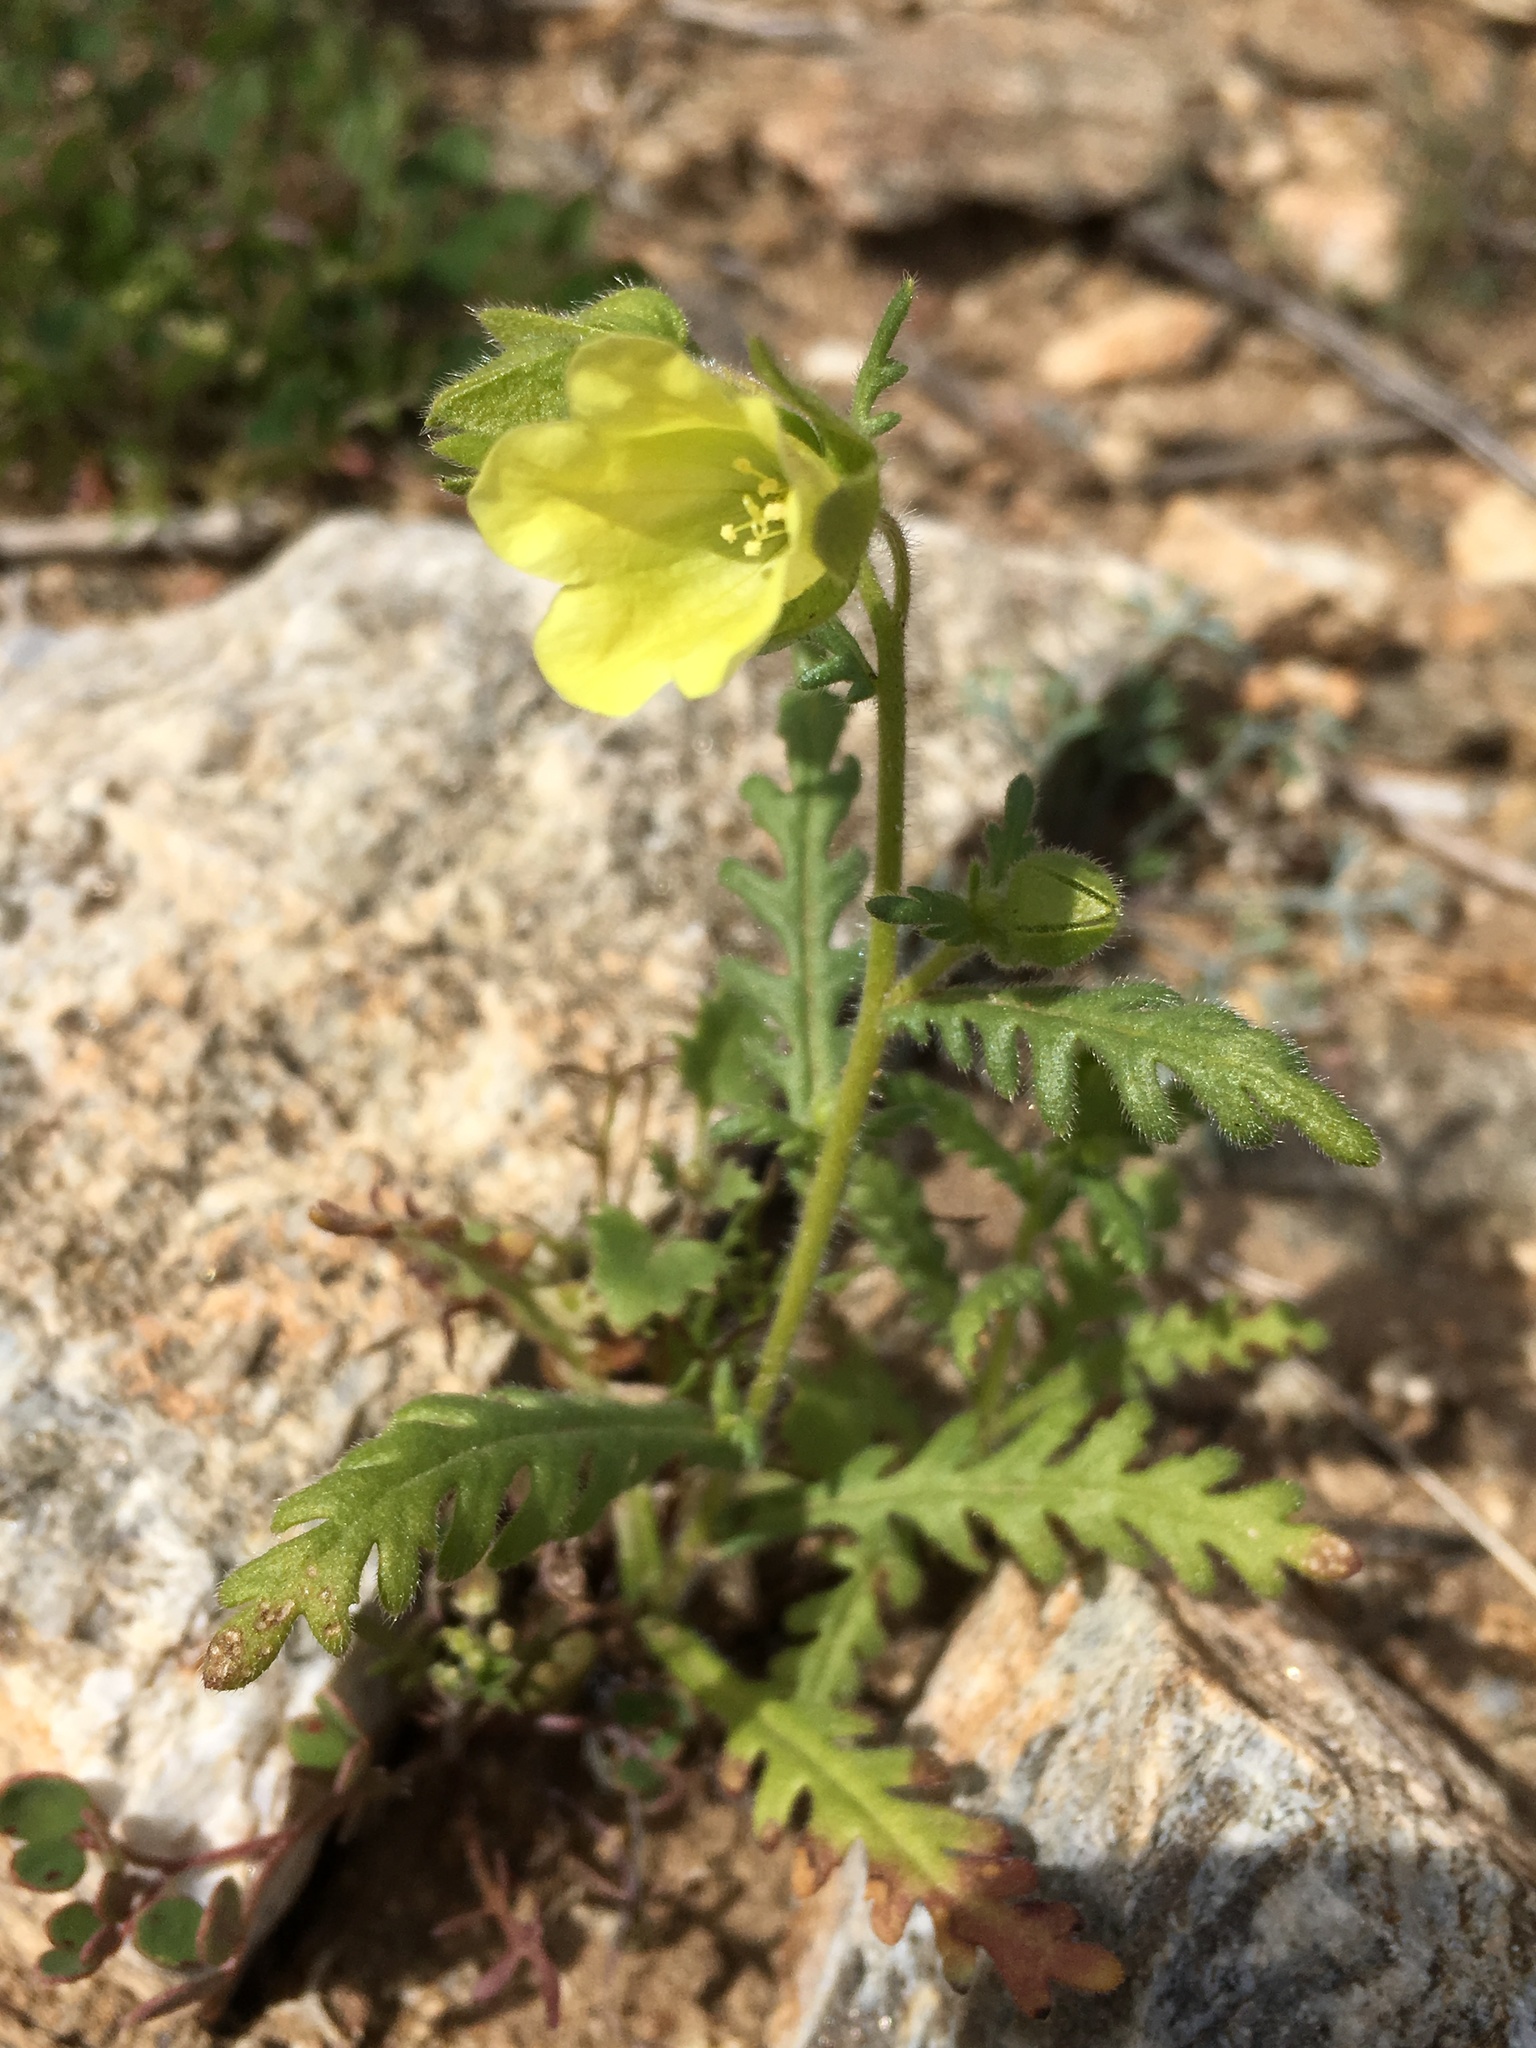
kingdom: Plantae
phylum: Tracheophyta
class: Magnoliopsida
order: Boraginales
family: Hydrophyllaceae
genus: Emmenanthe
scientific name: Emmenanthe penduliflora
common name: Whispering-bells
